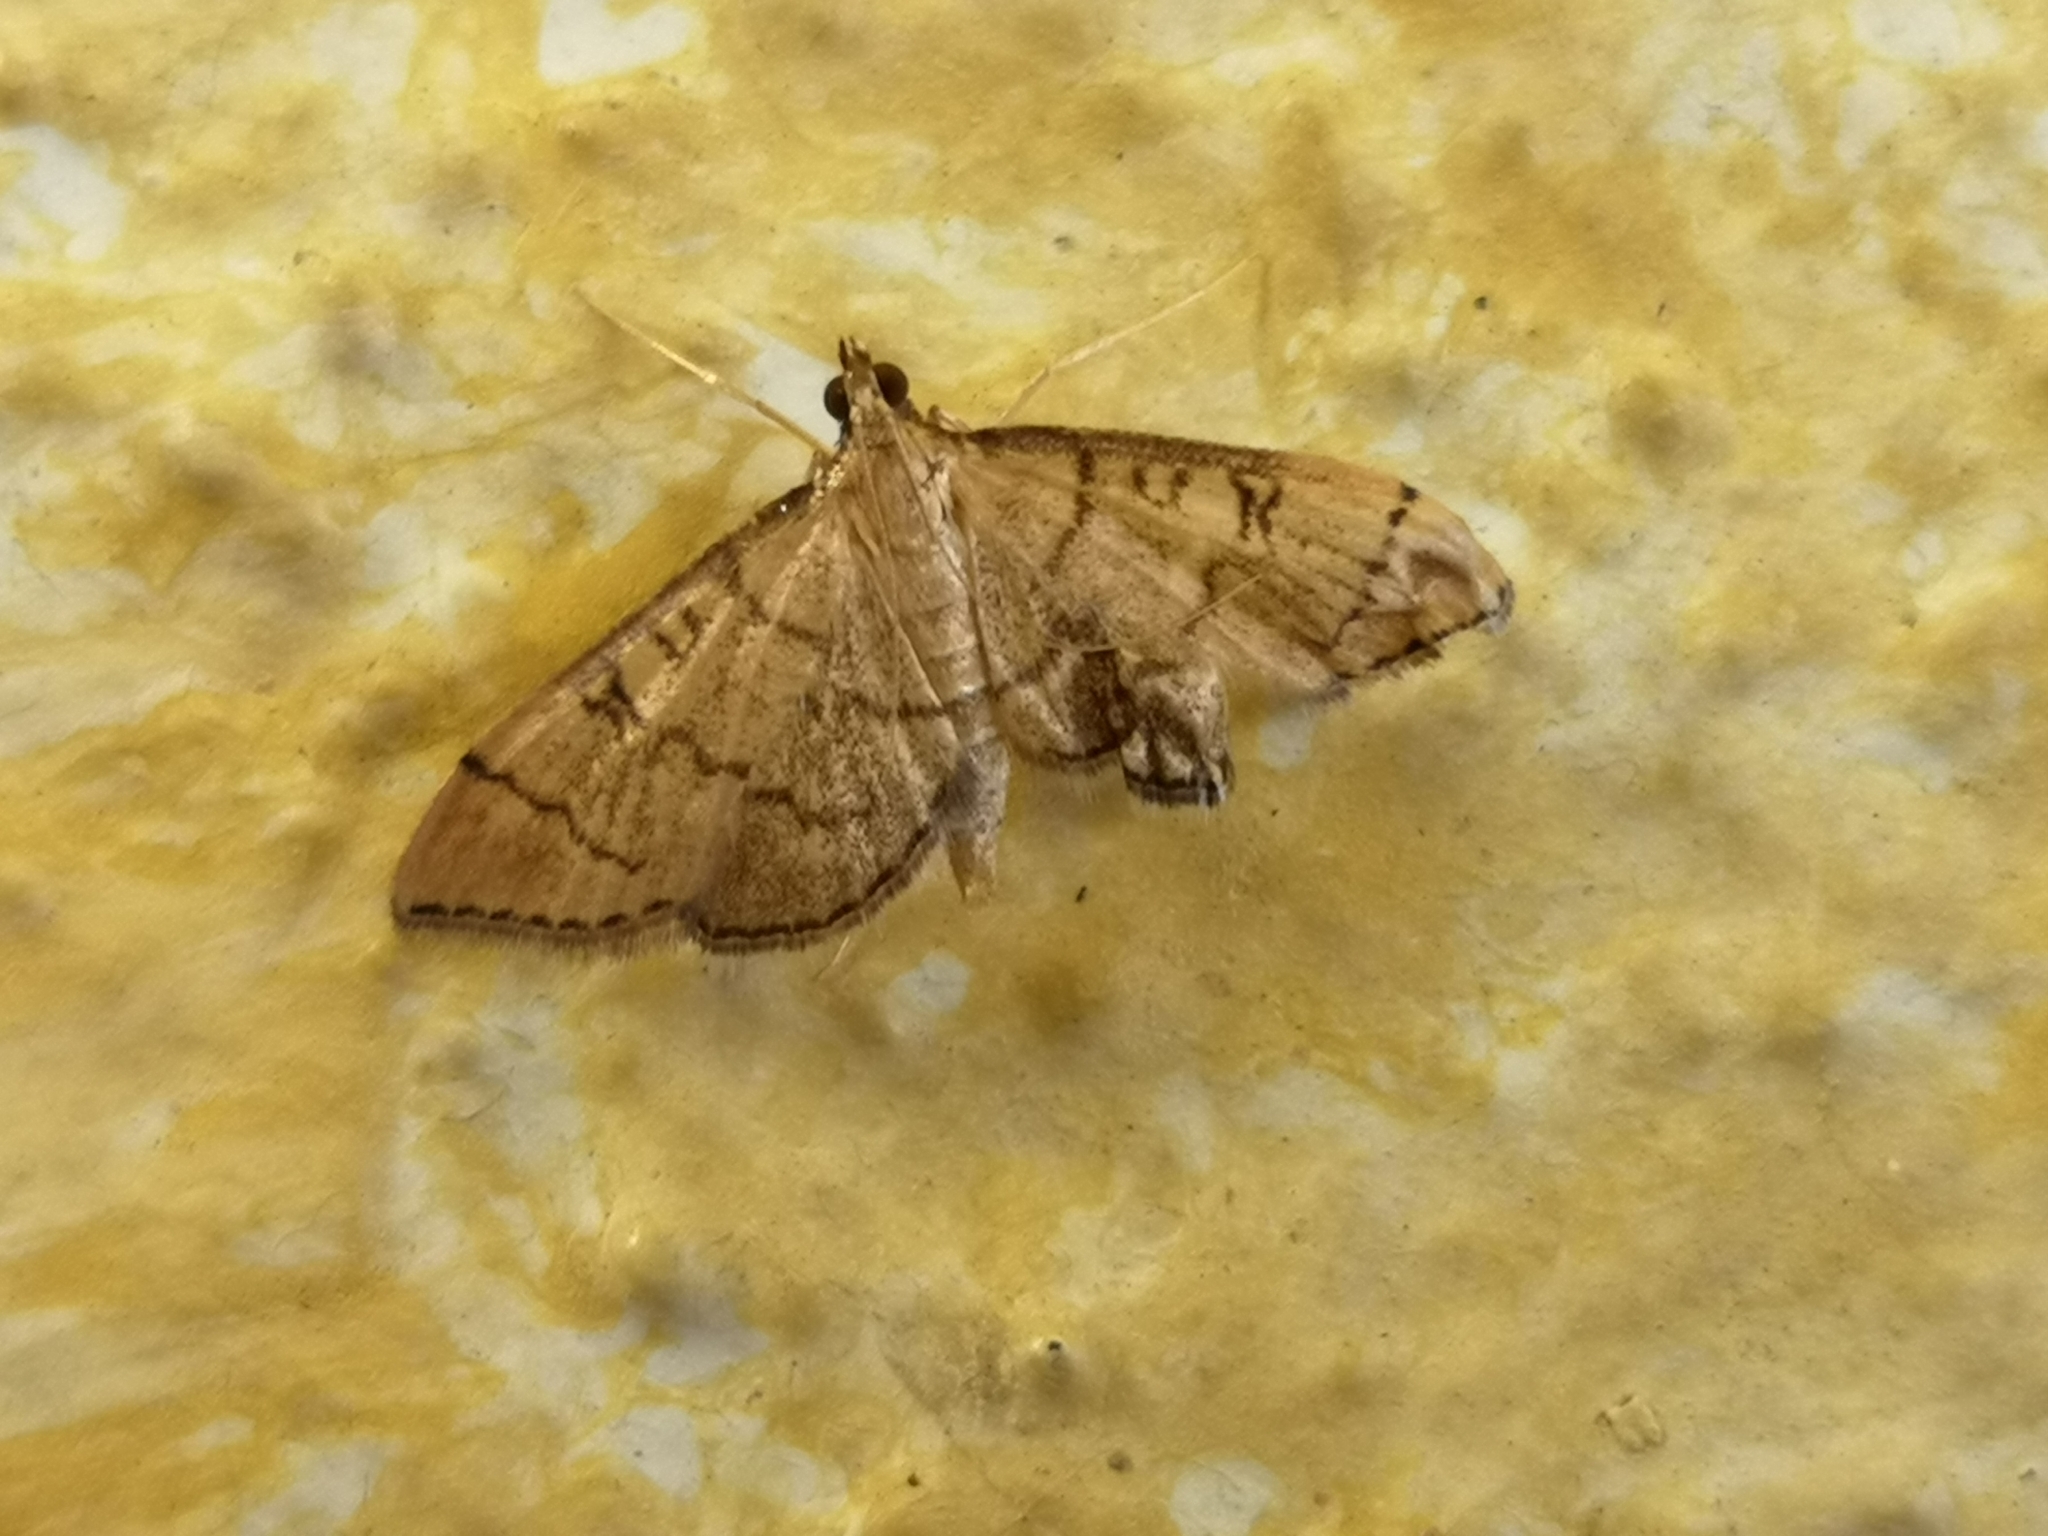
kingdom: Animalia
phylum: Arthropoda
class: Insecta
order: Lepidoptera
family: Crambidae
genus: Lamprosema
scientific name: Lamprosema Blepharomastix ranalis
